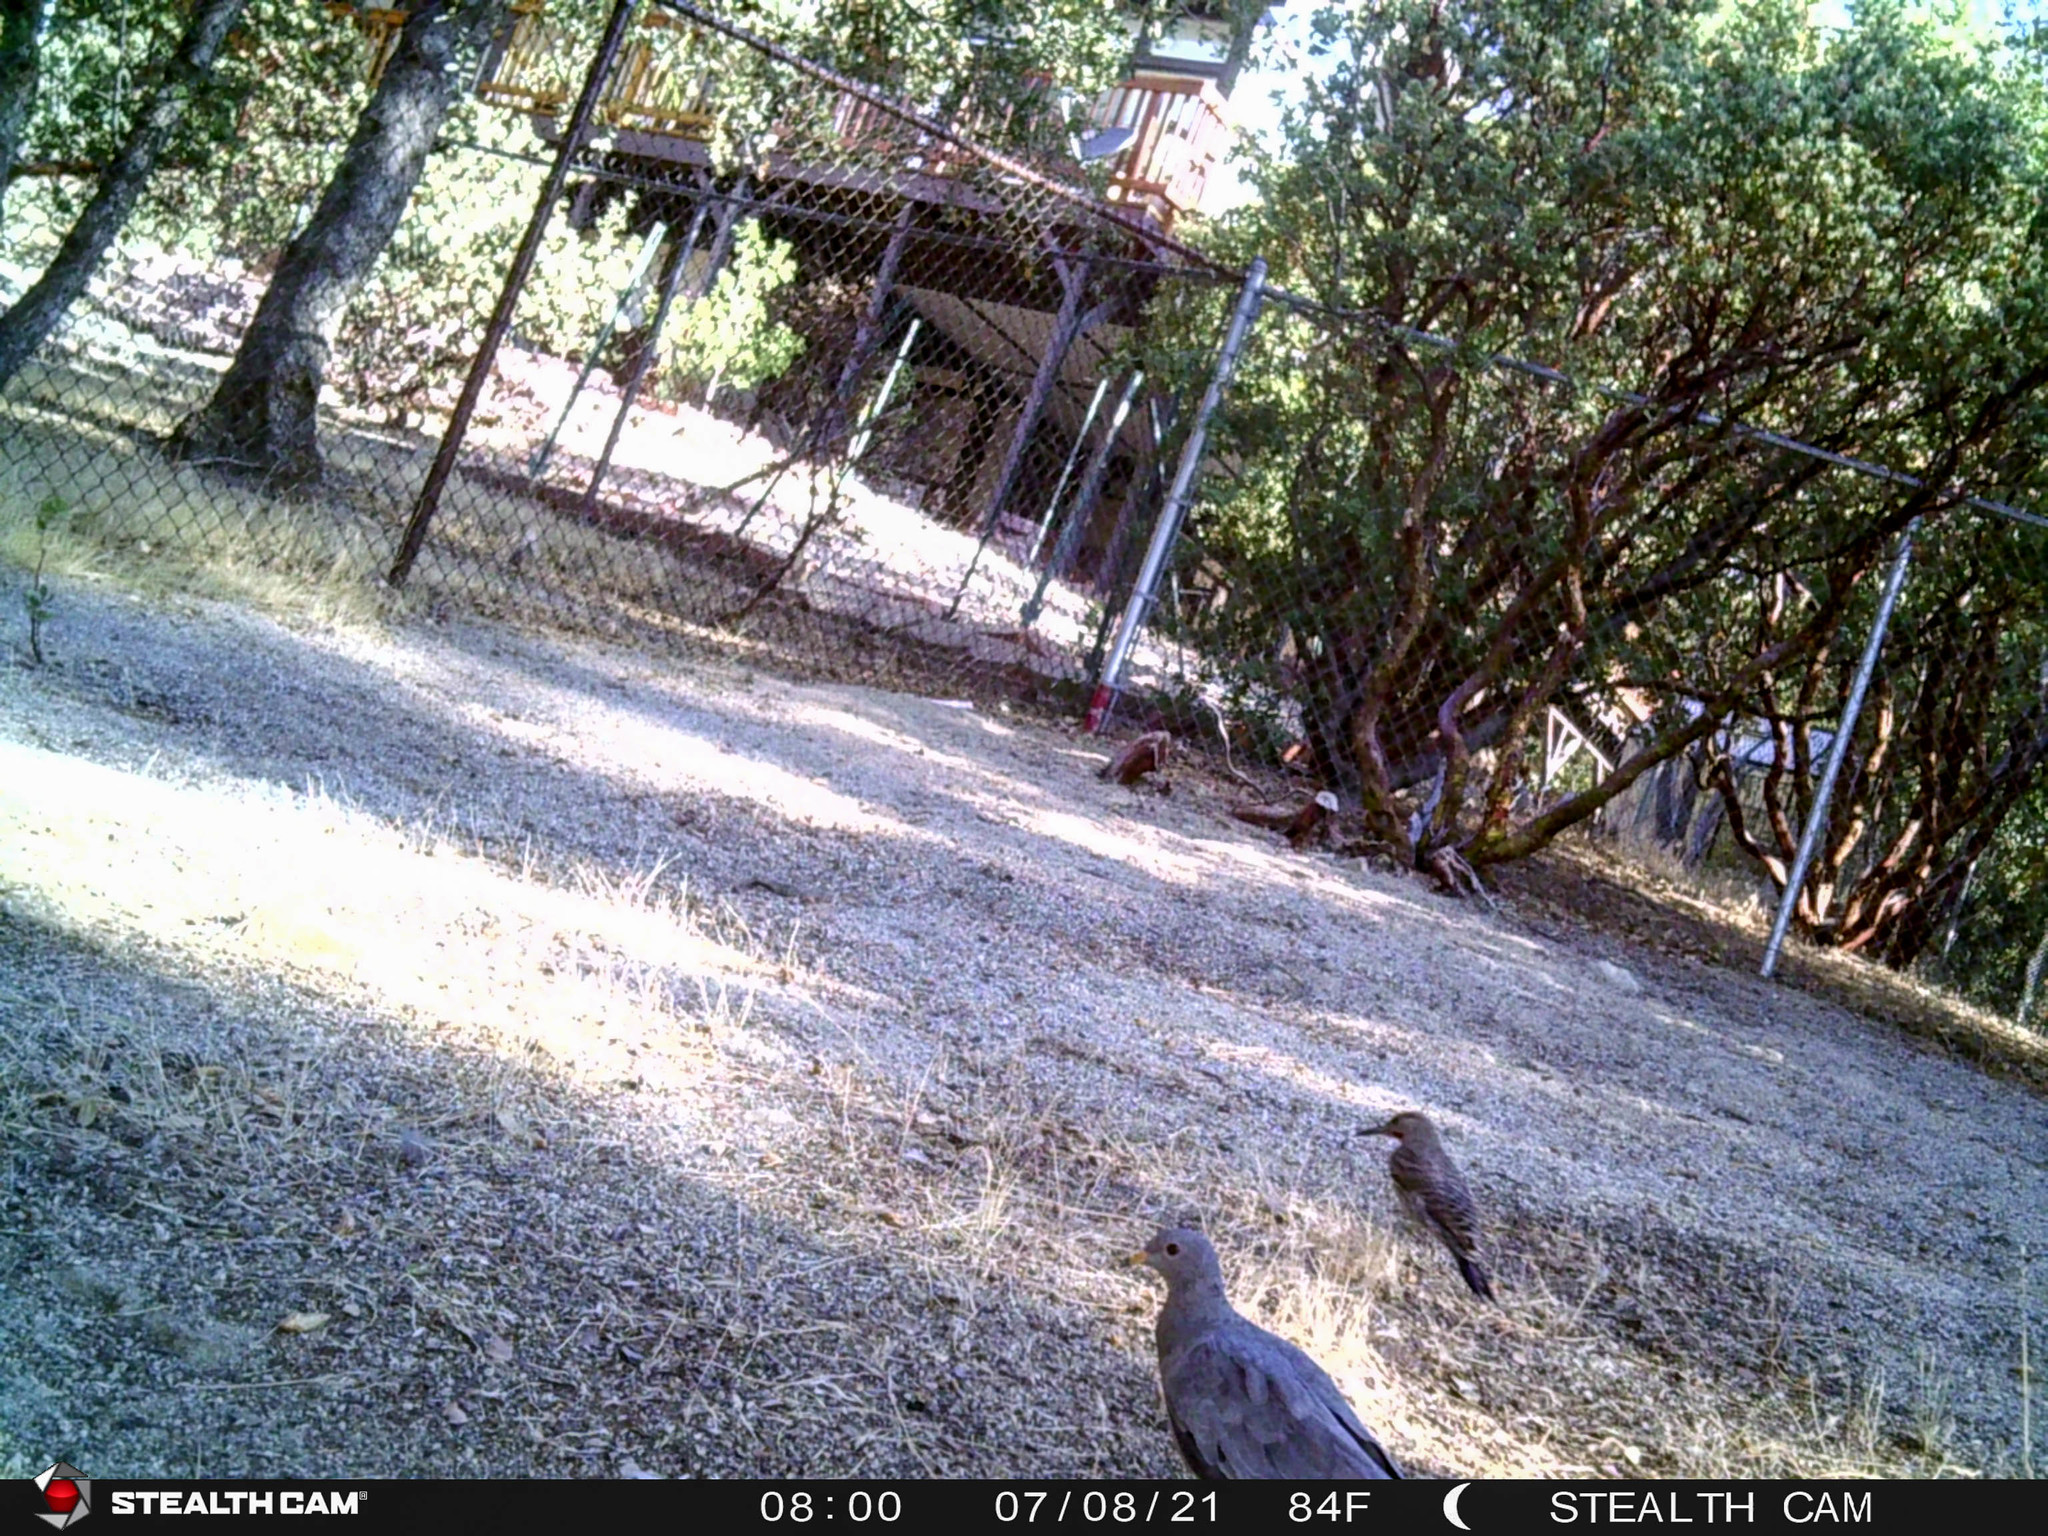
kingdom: Animalia
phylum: Chordata
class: Aves
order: Columbiformes
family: Columbidae
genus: Patagioenas
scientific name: Patagioenas fasciata
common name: Band-tailed pigeon
